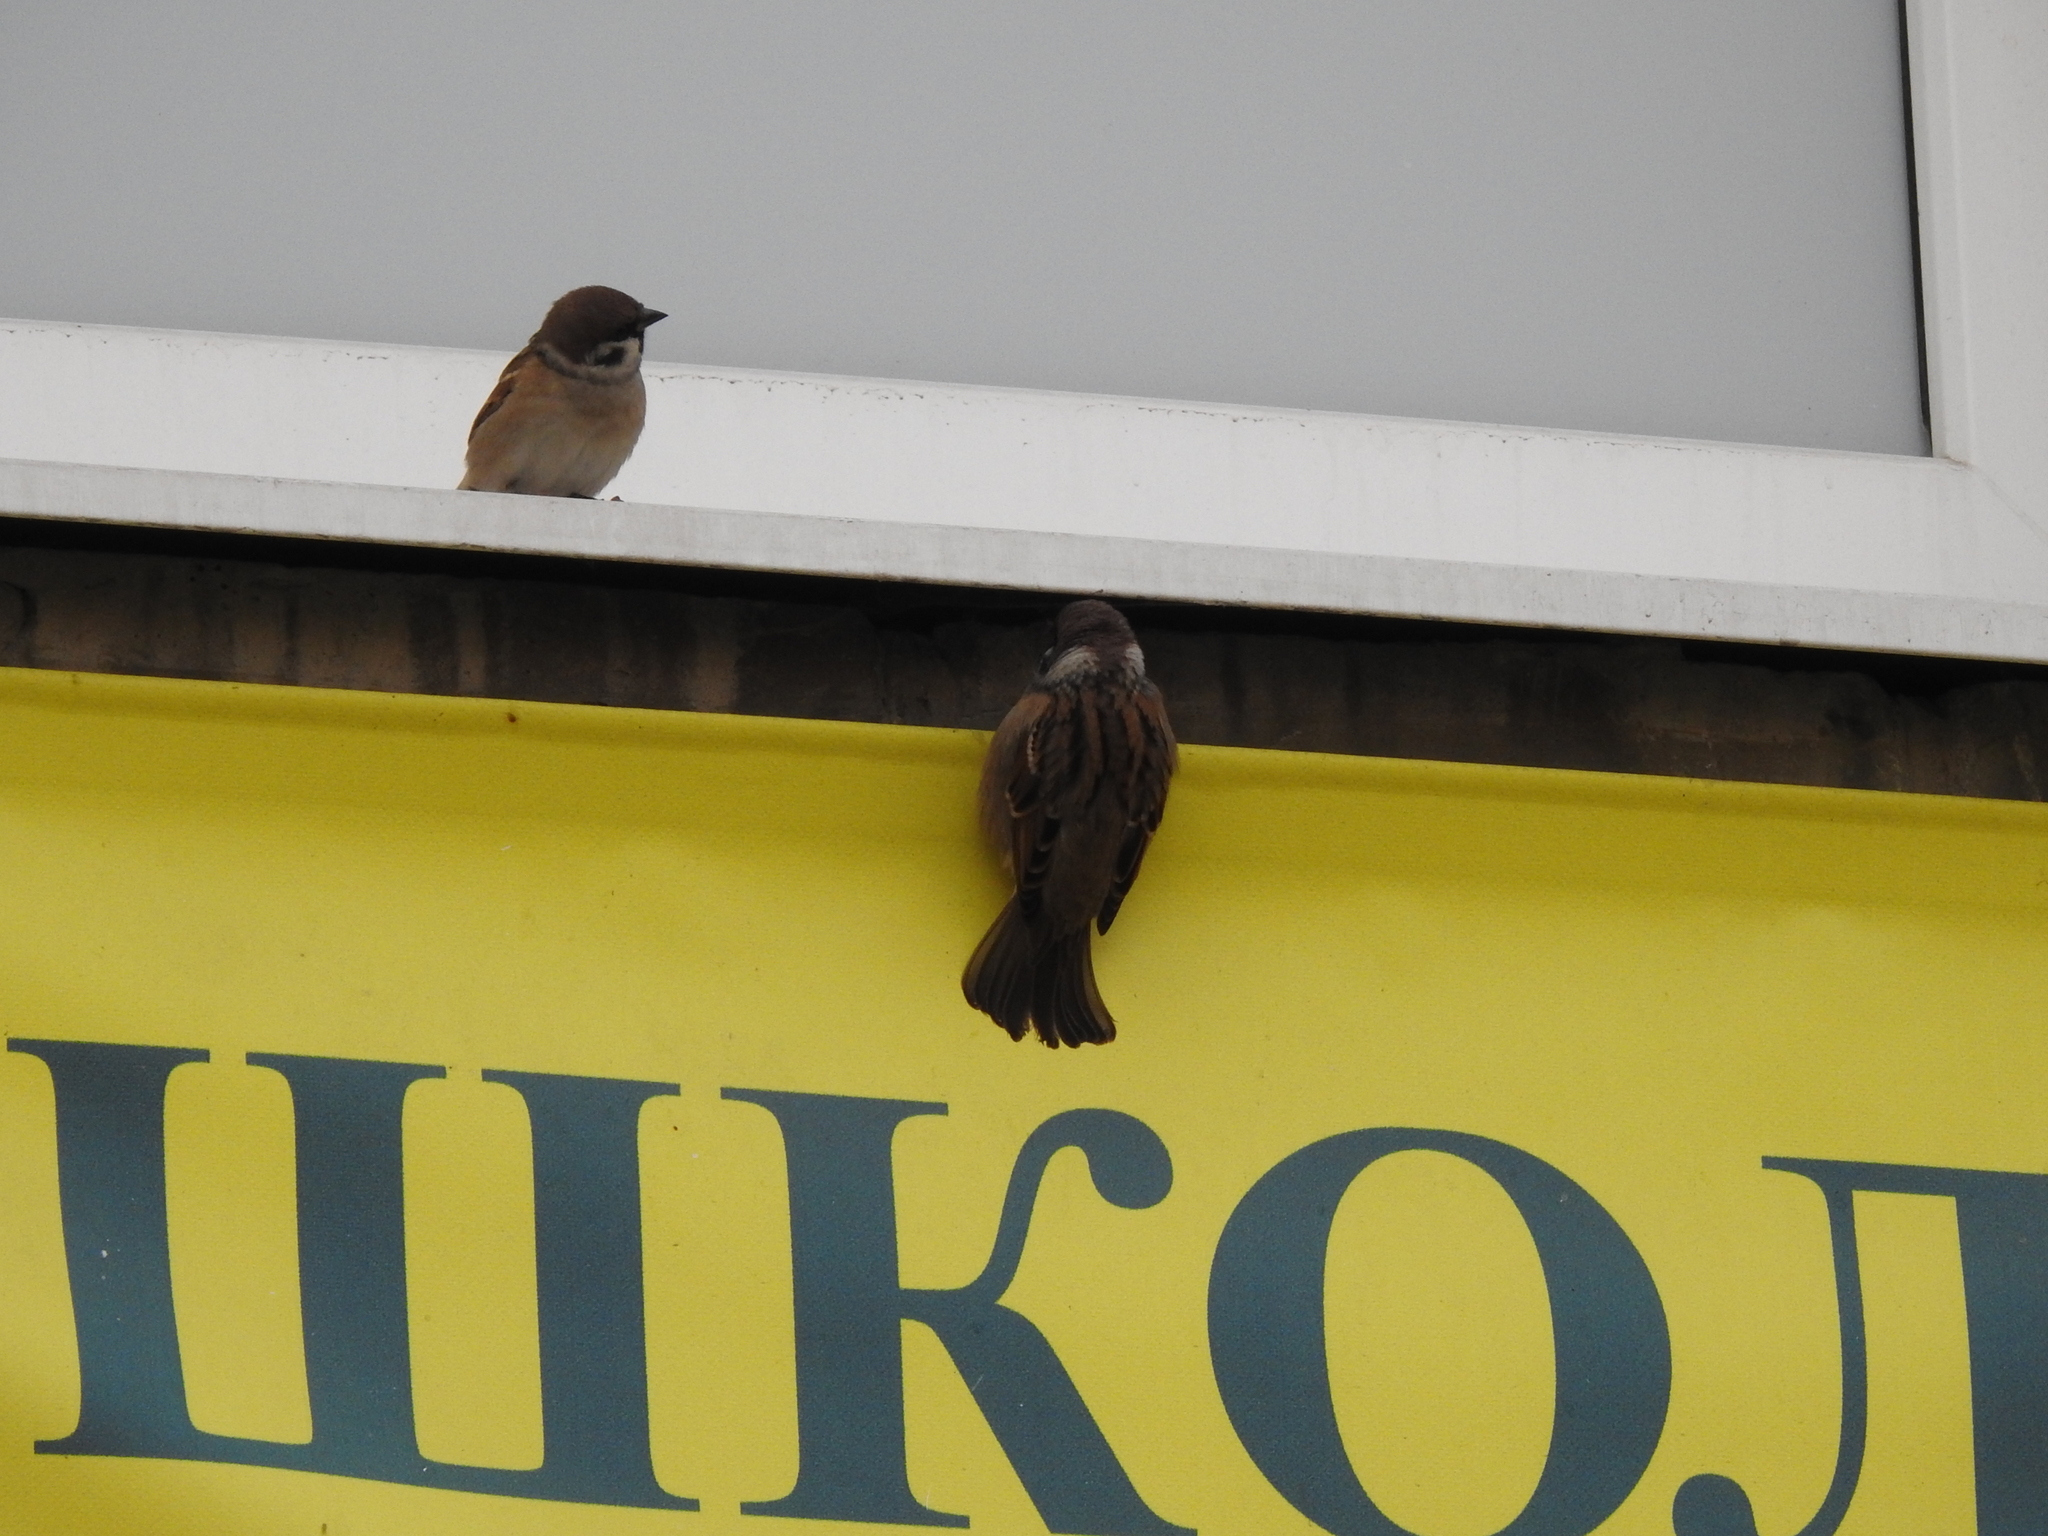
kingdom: Animalia
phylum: Chordata
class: Aves
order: Passeriformes
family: Passeridae
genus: Passer
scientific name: Passer montanus
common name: Eurasian tree sparrow
